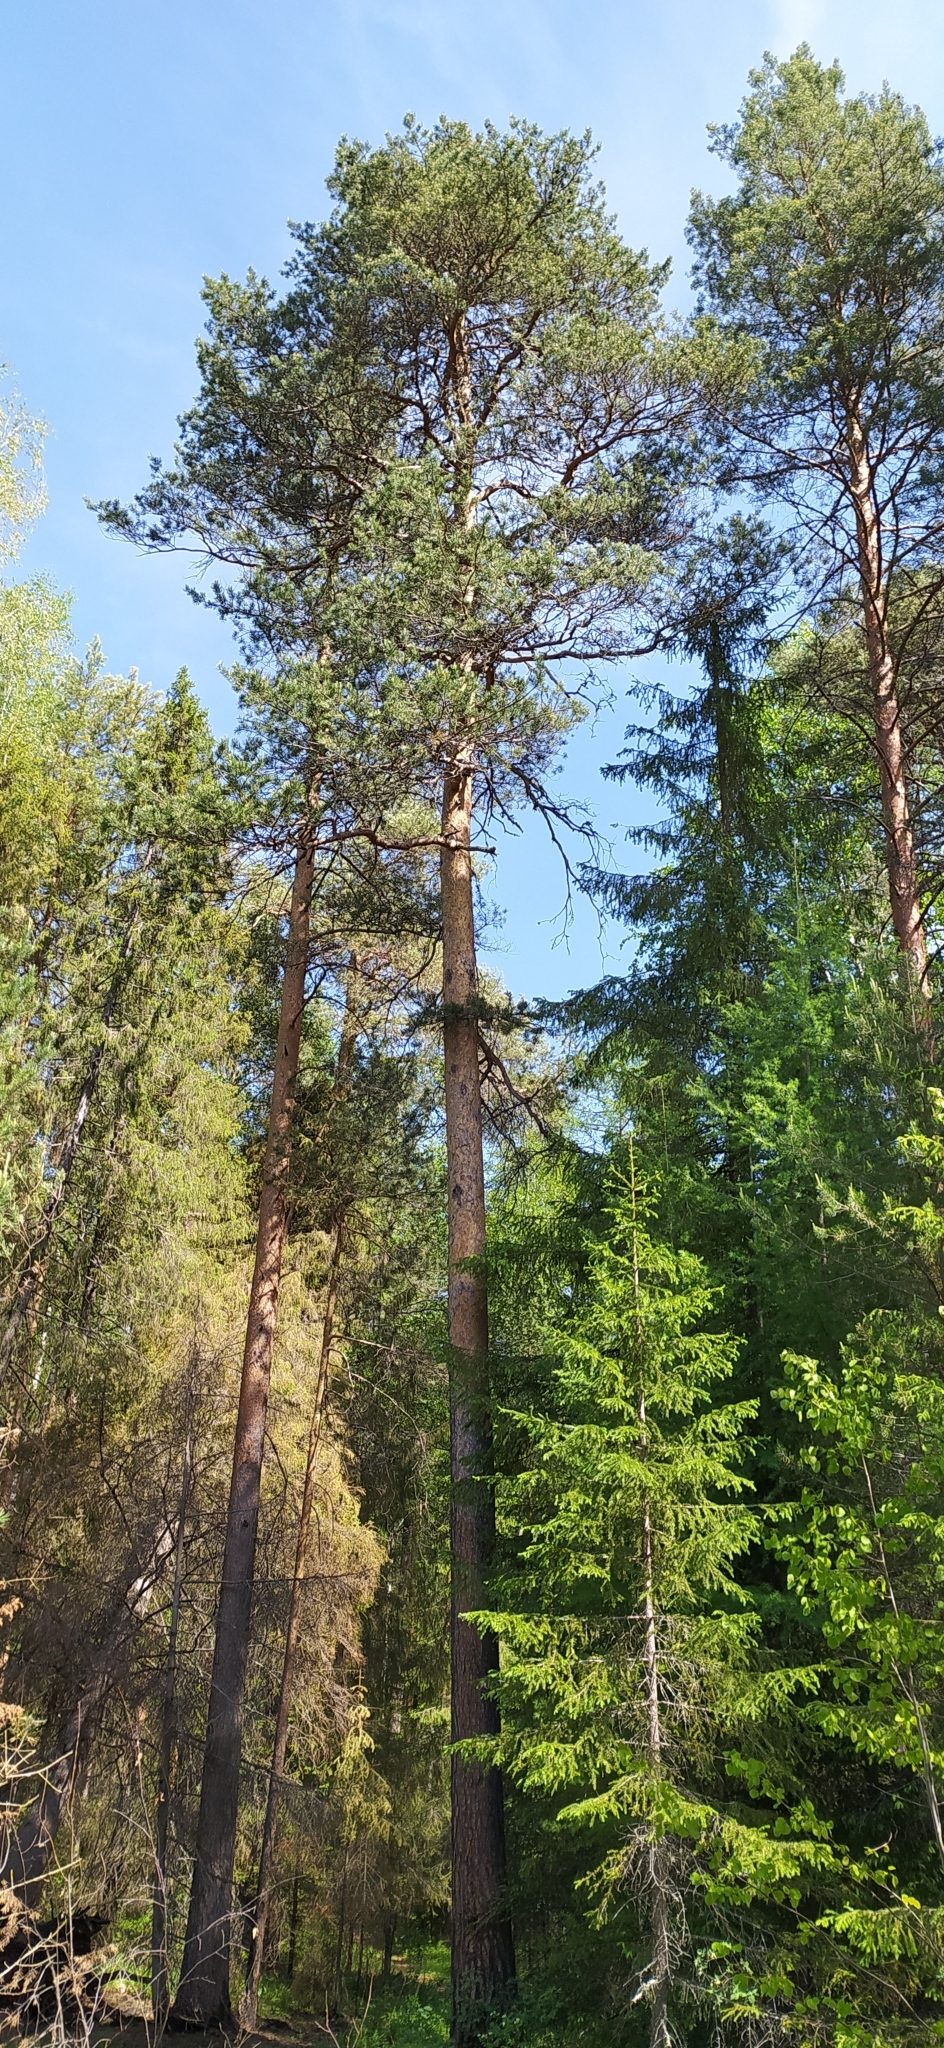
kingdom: Plantae
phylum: Tracheophyta
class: Pinopsida
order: Pinales
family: Pinaceae
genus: Pinus
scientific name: Pinus sylvestris
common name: Scots pine
